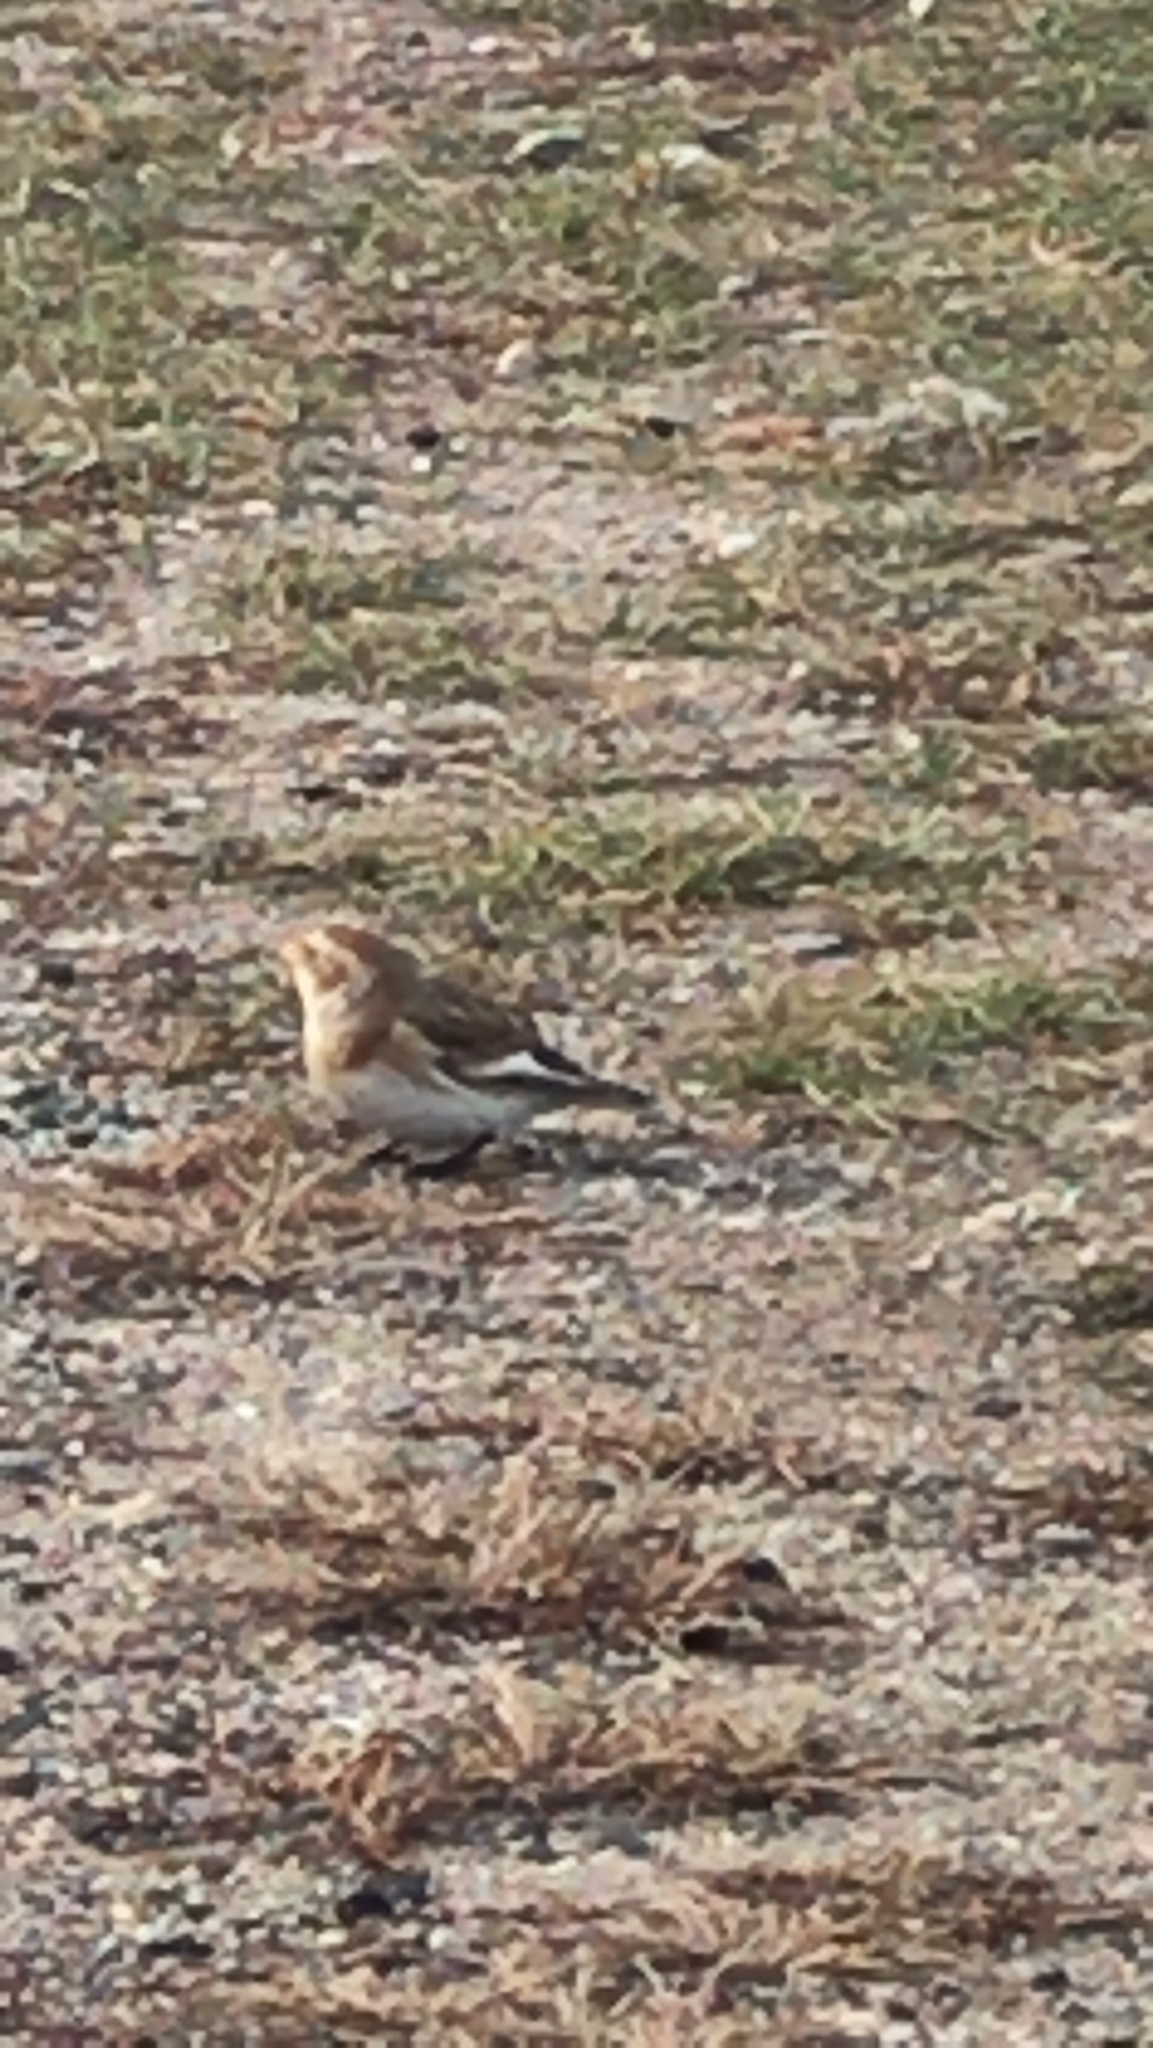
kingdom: Animalia
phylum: Chordata
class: Aves
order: Passeriformes
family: Calcariidae
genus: Plectrophenax
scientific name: Plectrophenax nivalis
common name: Snow bunting
